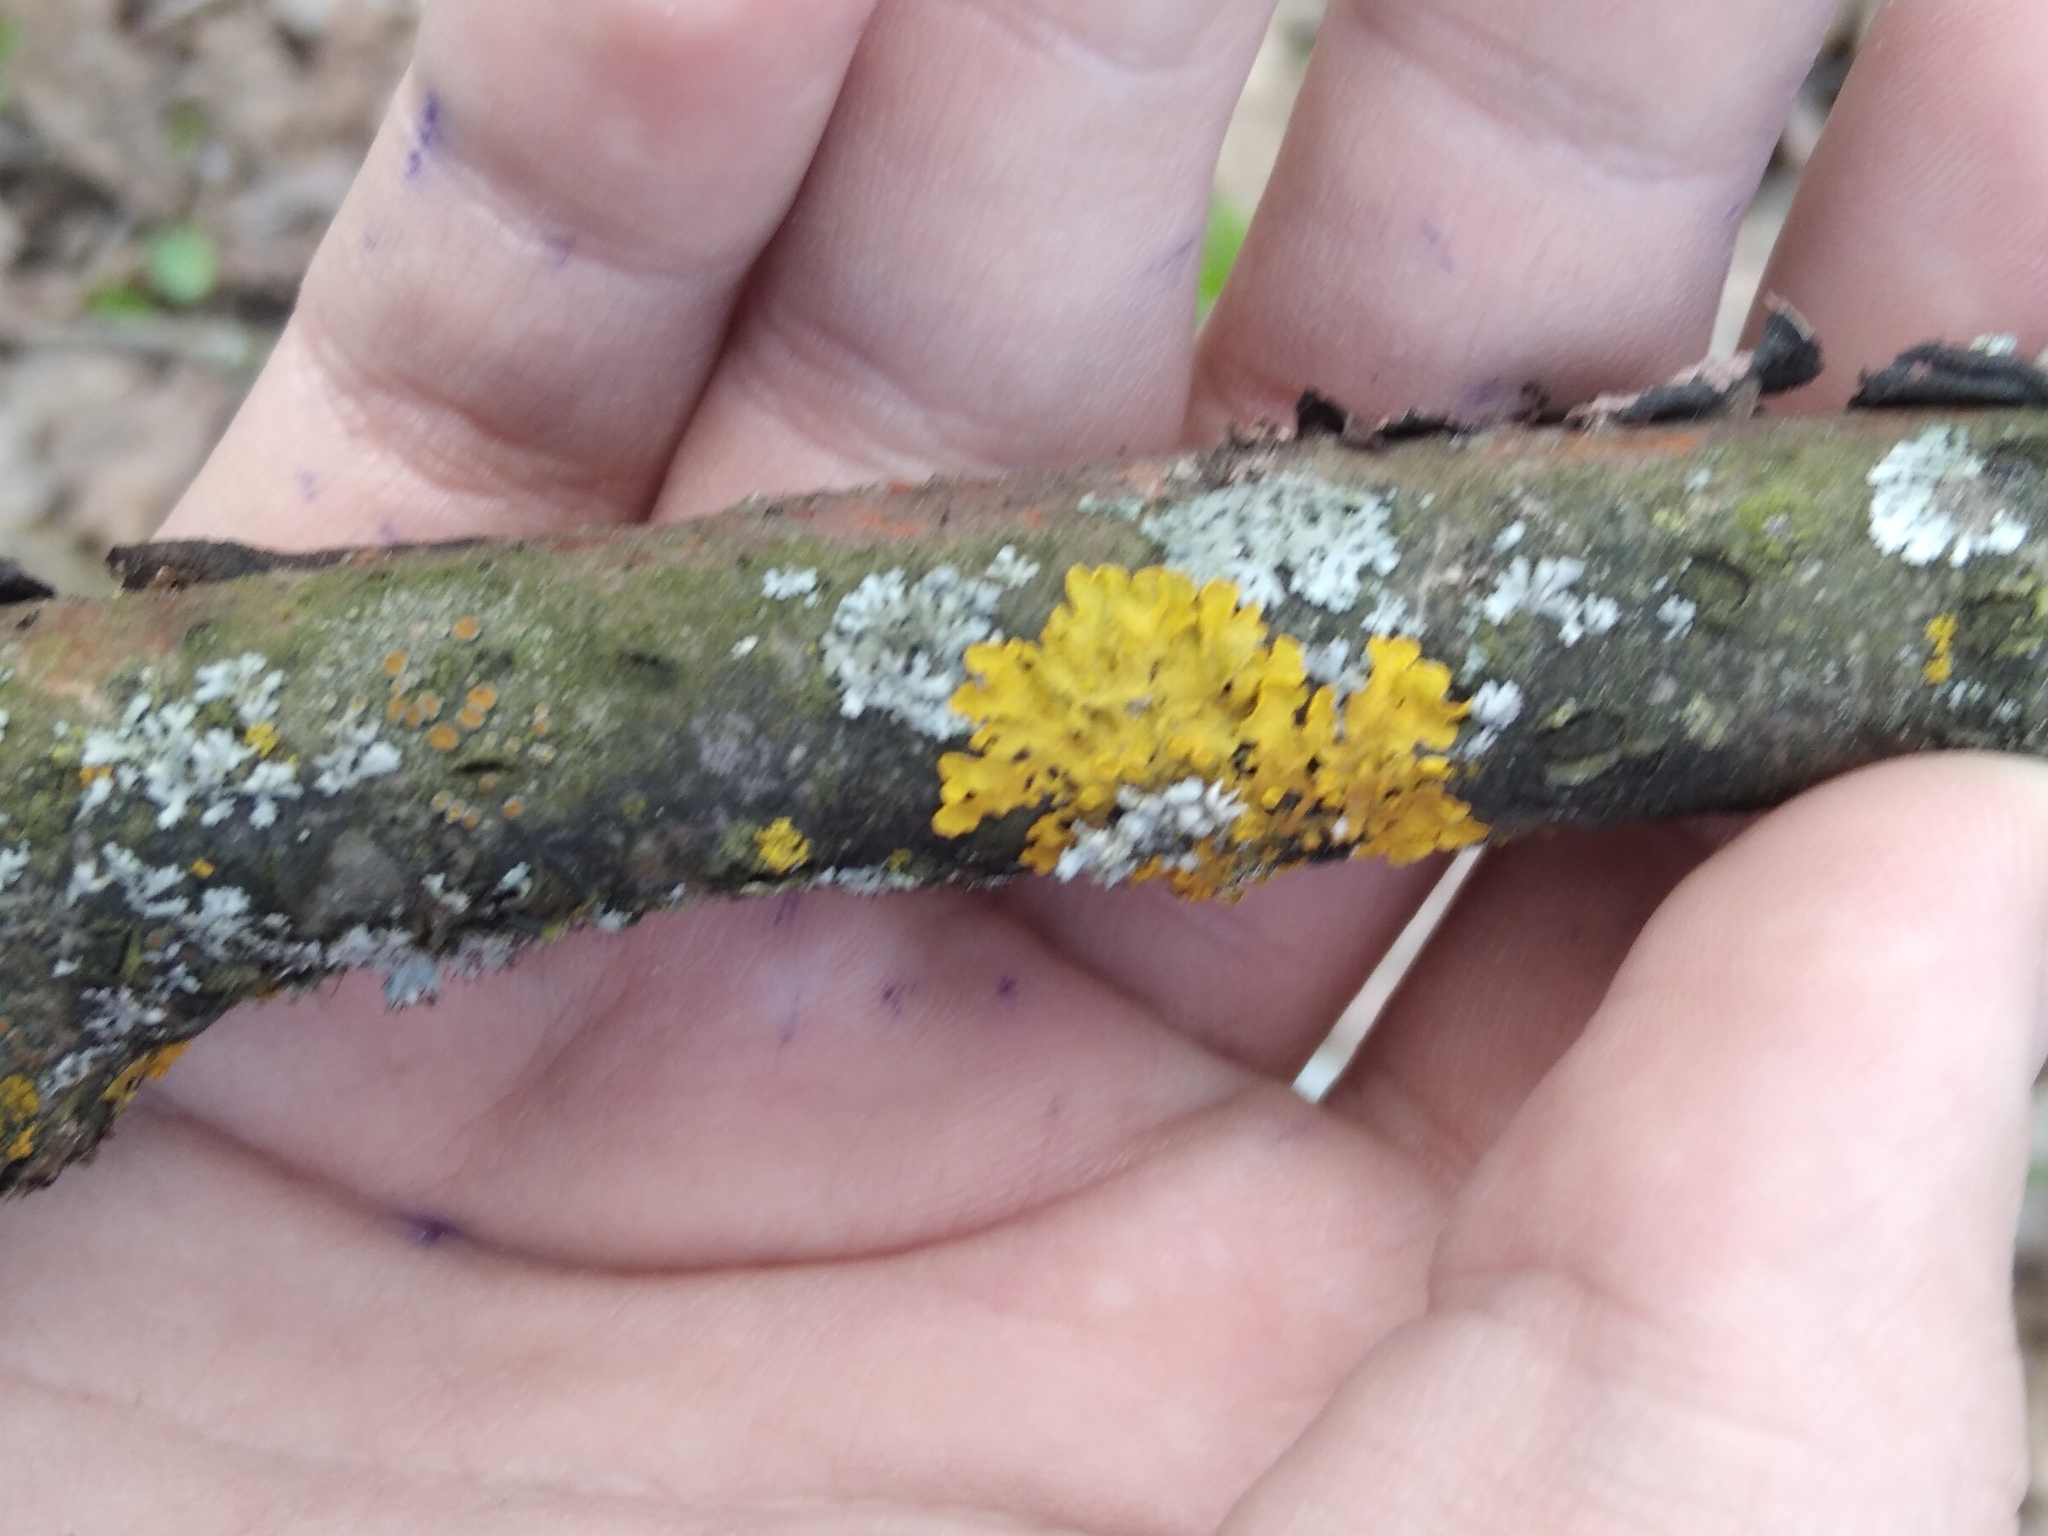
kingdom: Fungi
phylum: Ascomycota
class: Lecanoromycetes
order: Teloschistales
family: Teloschistaceae
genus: Xanthoria
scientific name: Xanthoria parietina
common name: Common orange lichen
